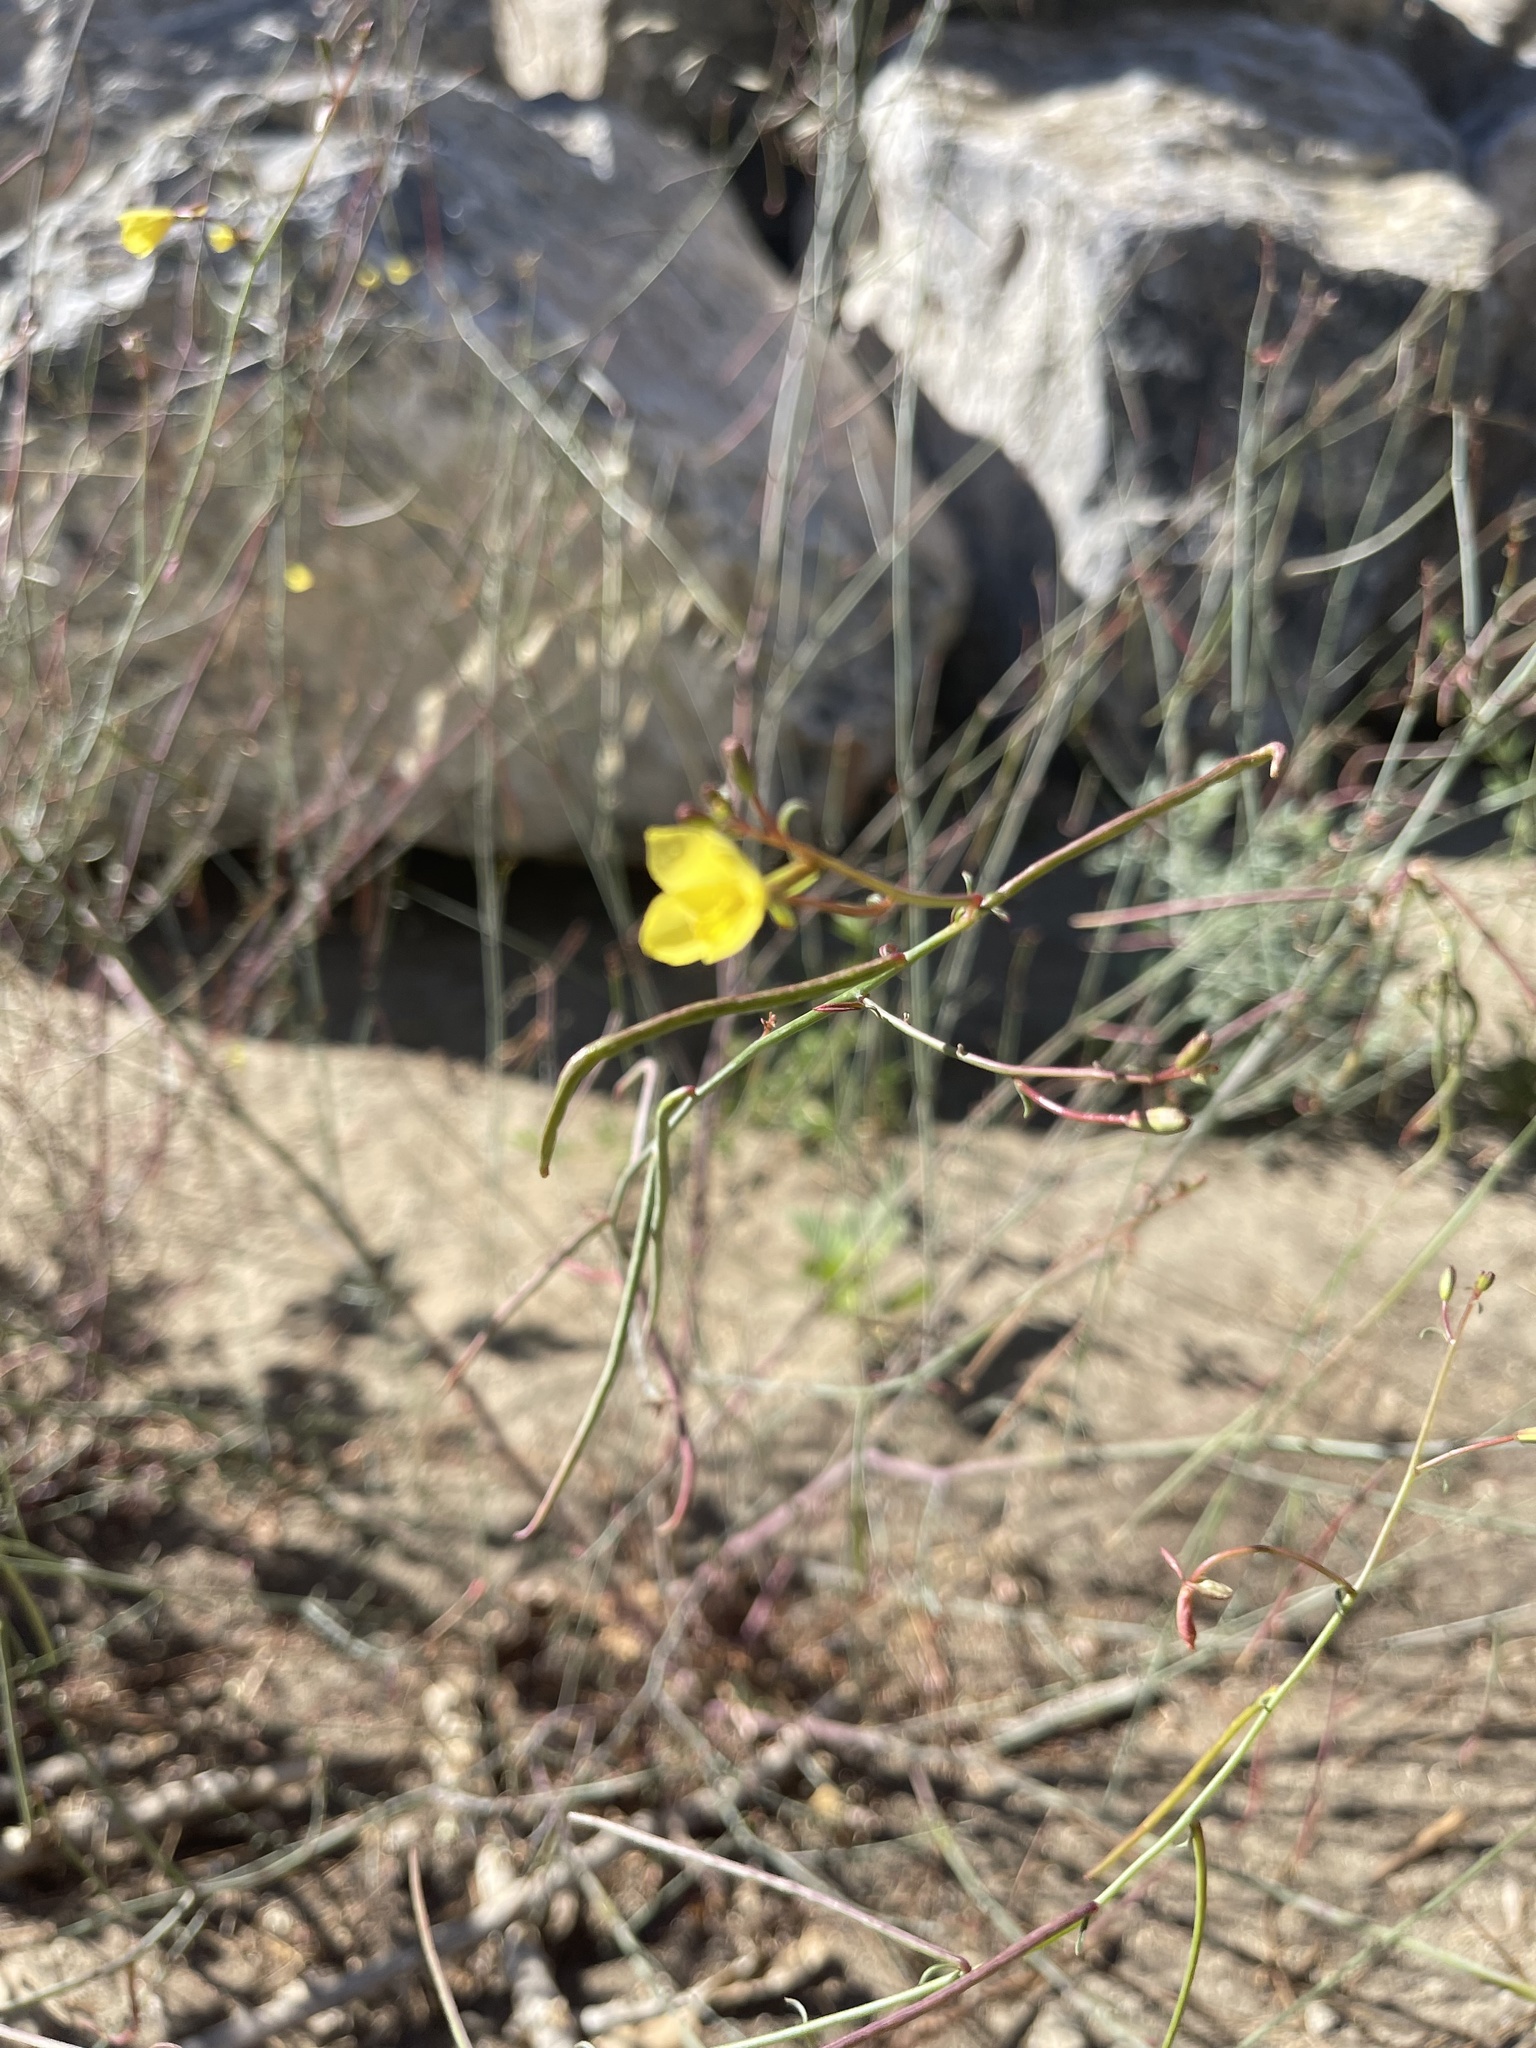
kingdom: Plantae
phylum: Tracheophyta
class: Magnoliopsida
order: Myrtales
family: Onagraceae
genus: Eulobus
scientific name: Eulobus californicus
